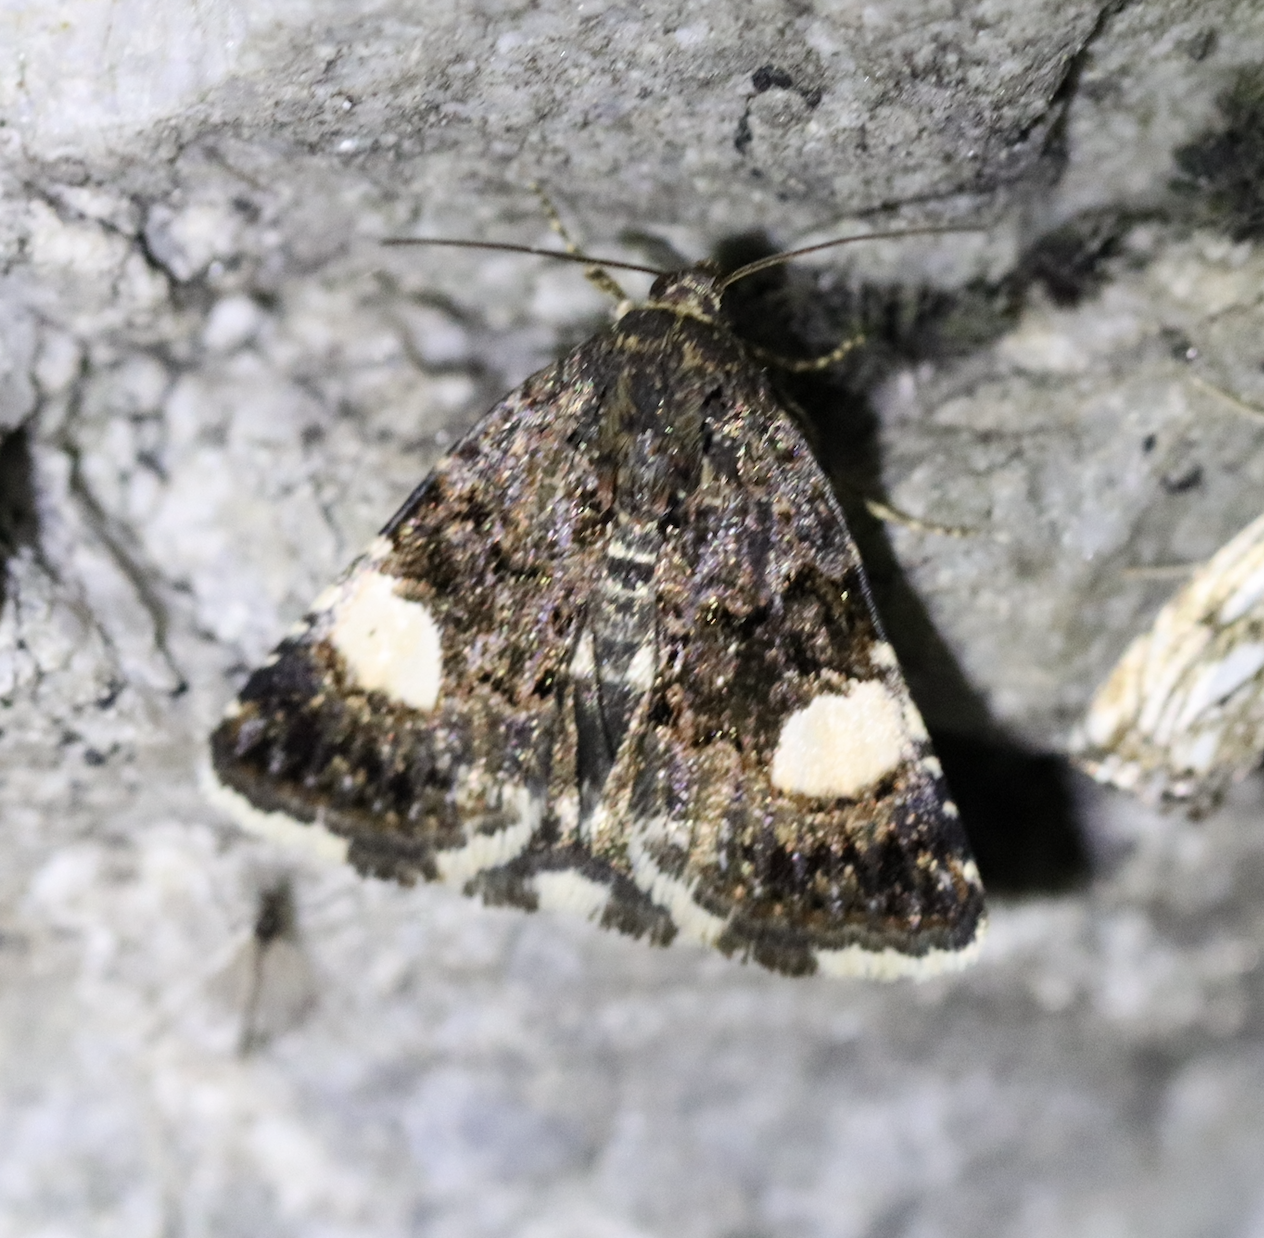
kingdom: Animalia
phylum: Arthropoda
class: Insecta
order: Lepidoptera
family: Erebidae
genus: Tyta
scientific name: Tyta luctuosa
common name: Four-spotted
